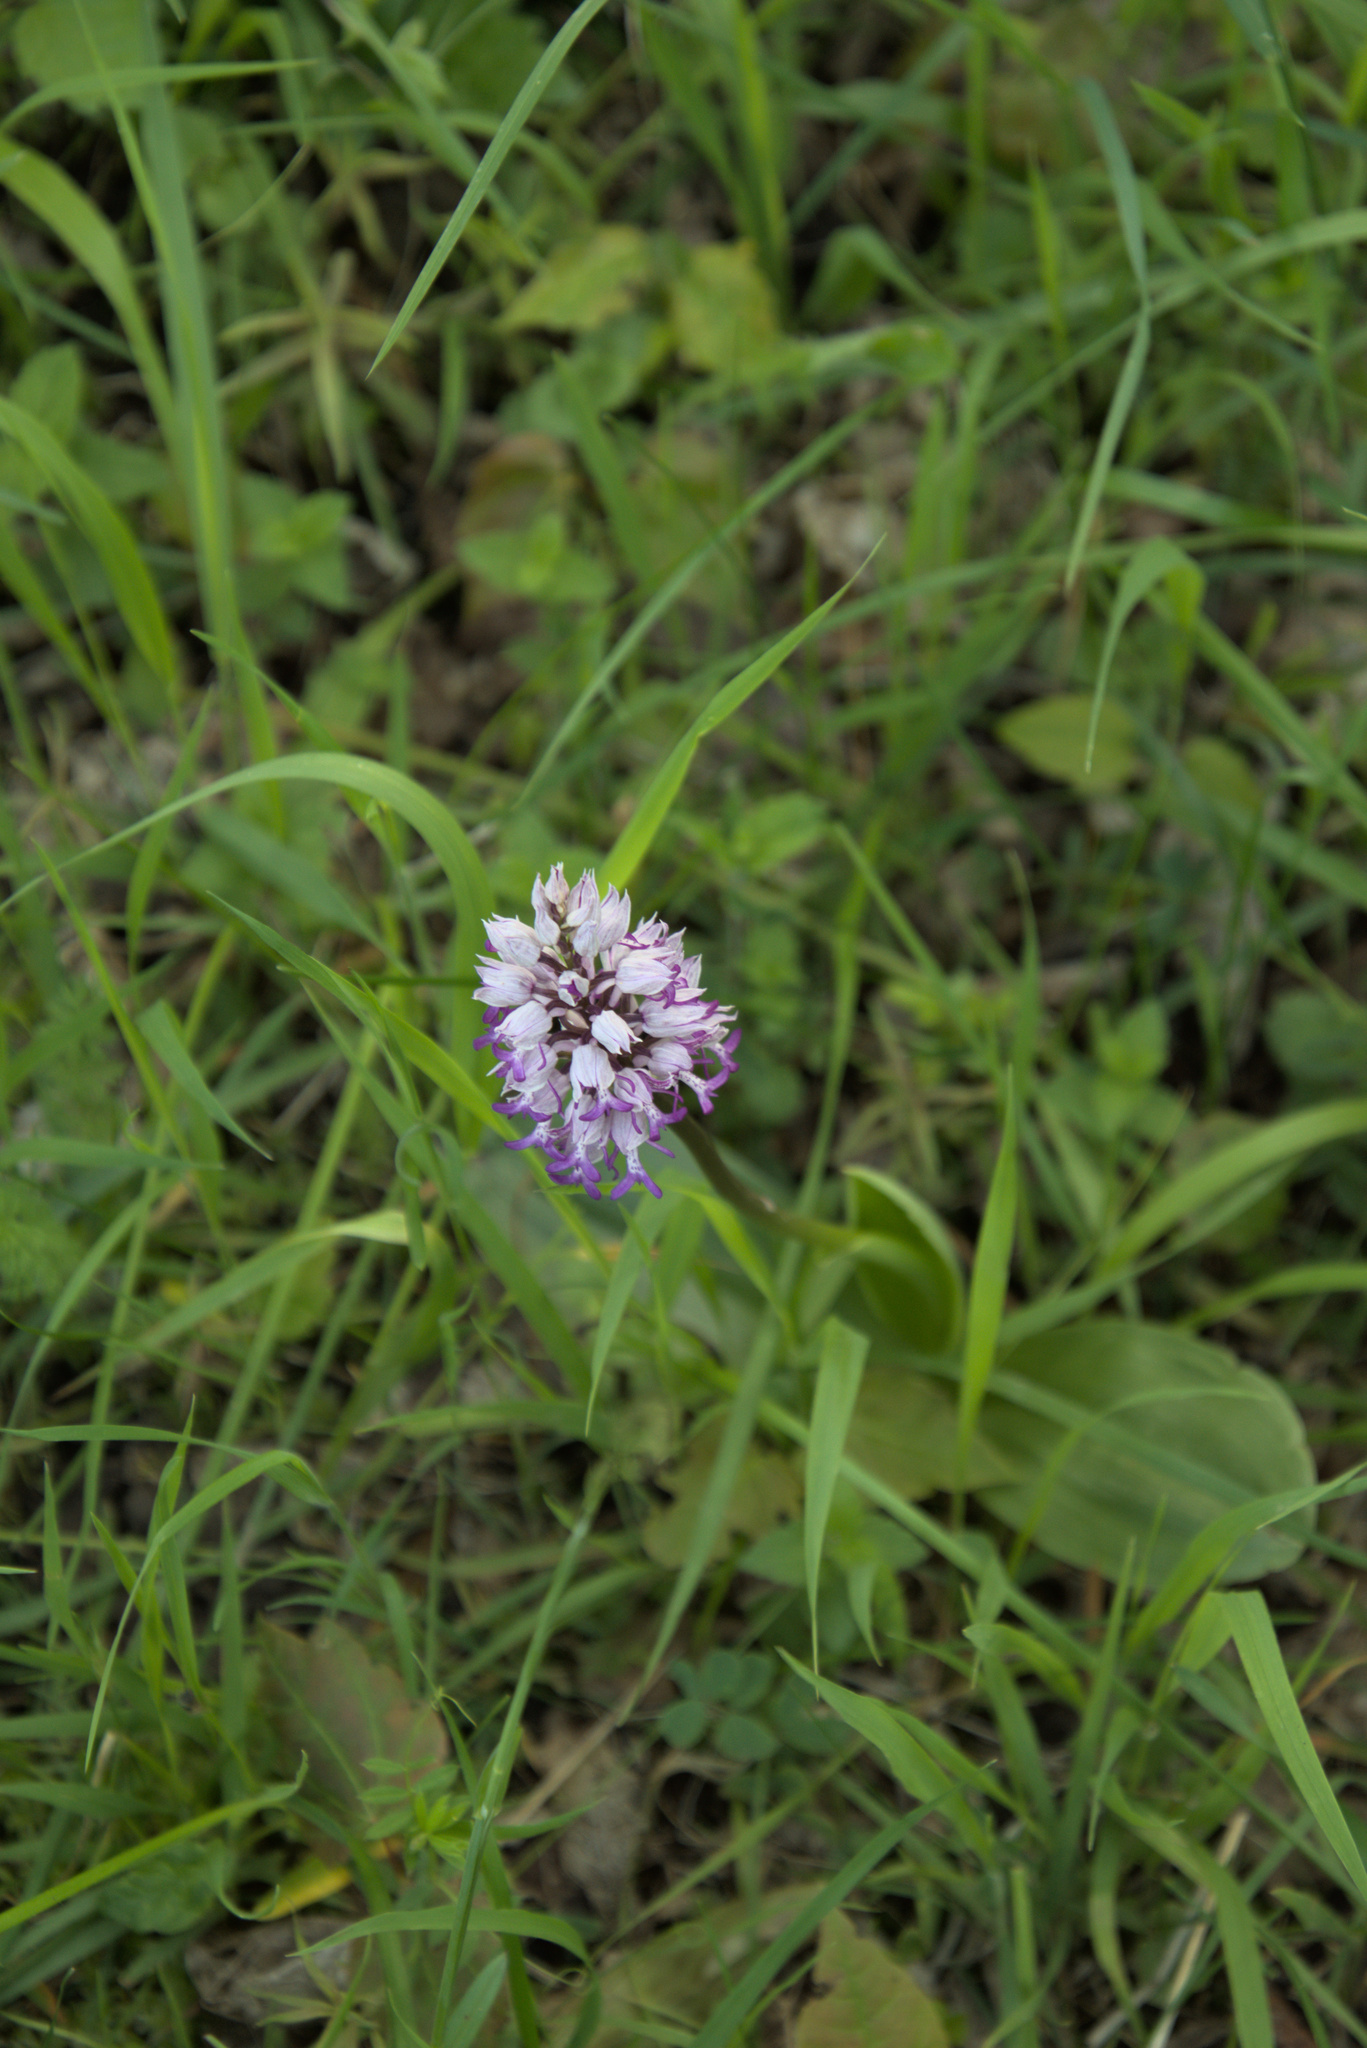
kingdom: Plantae
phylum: Tracheophyta
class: Liliopsida
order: Asparagales
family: Orchidaceae
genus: Orchis
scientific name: Orchis militaris
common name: Military orchid
